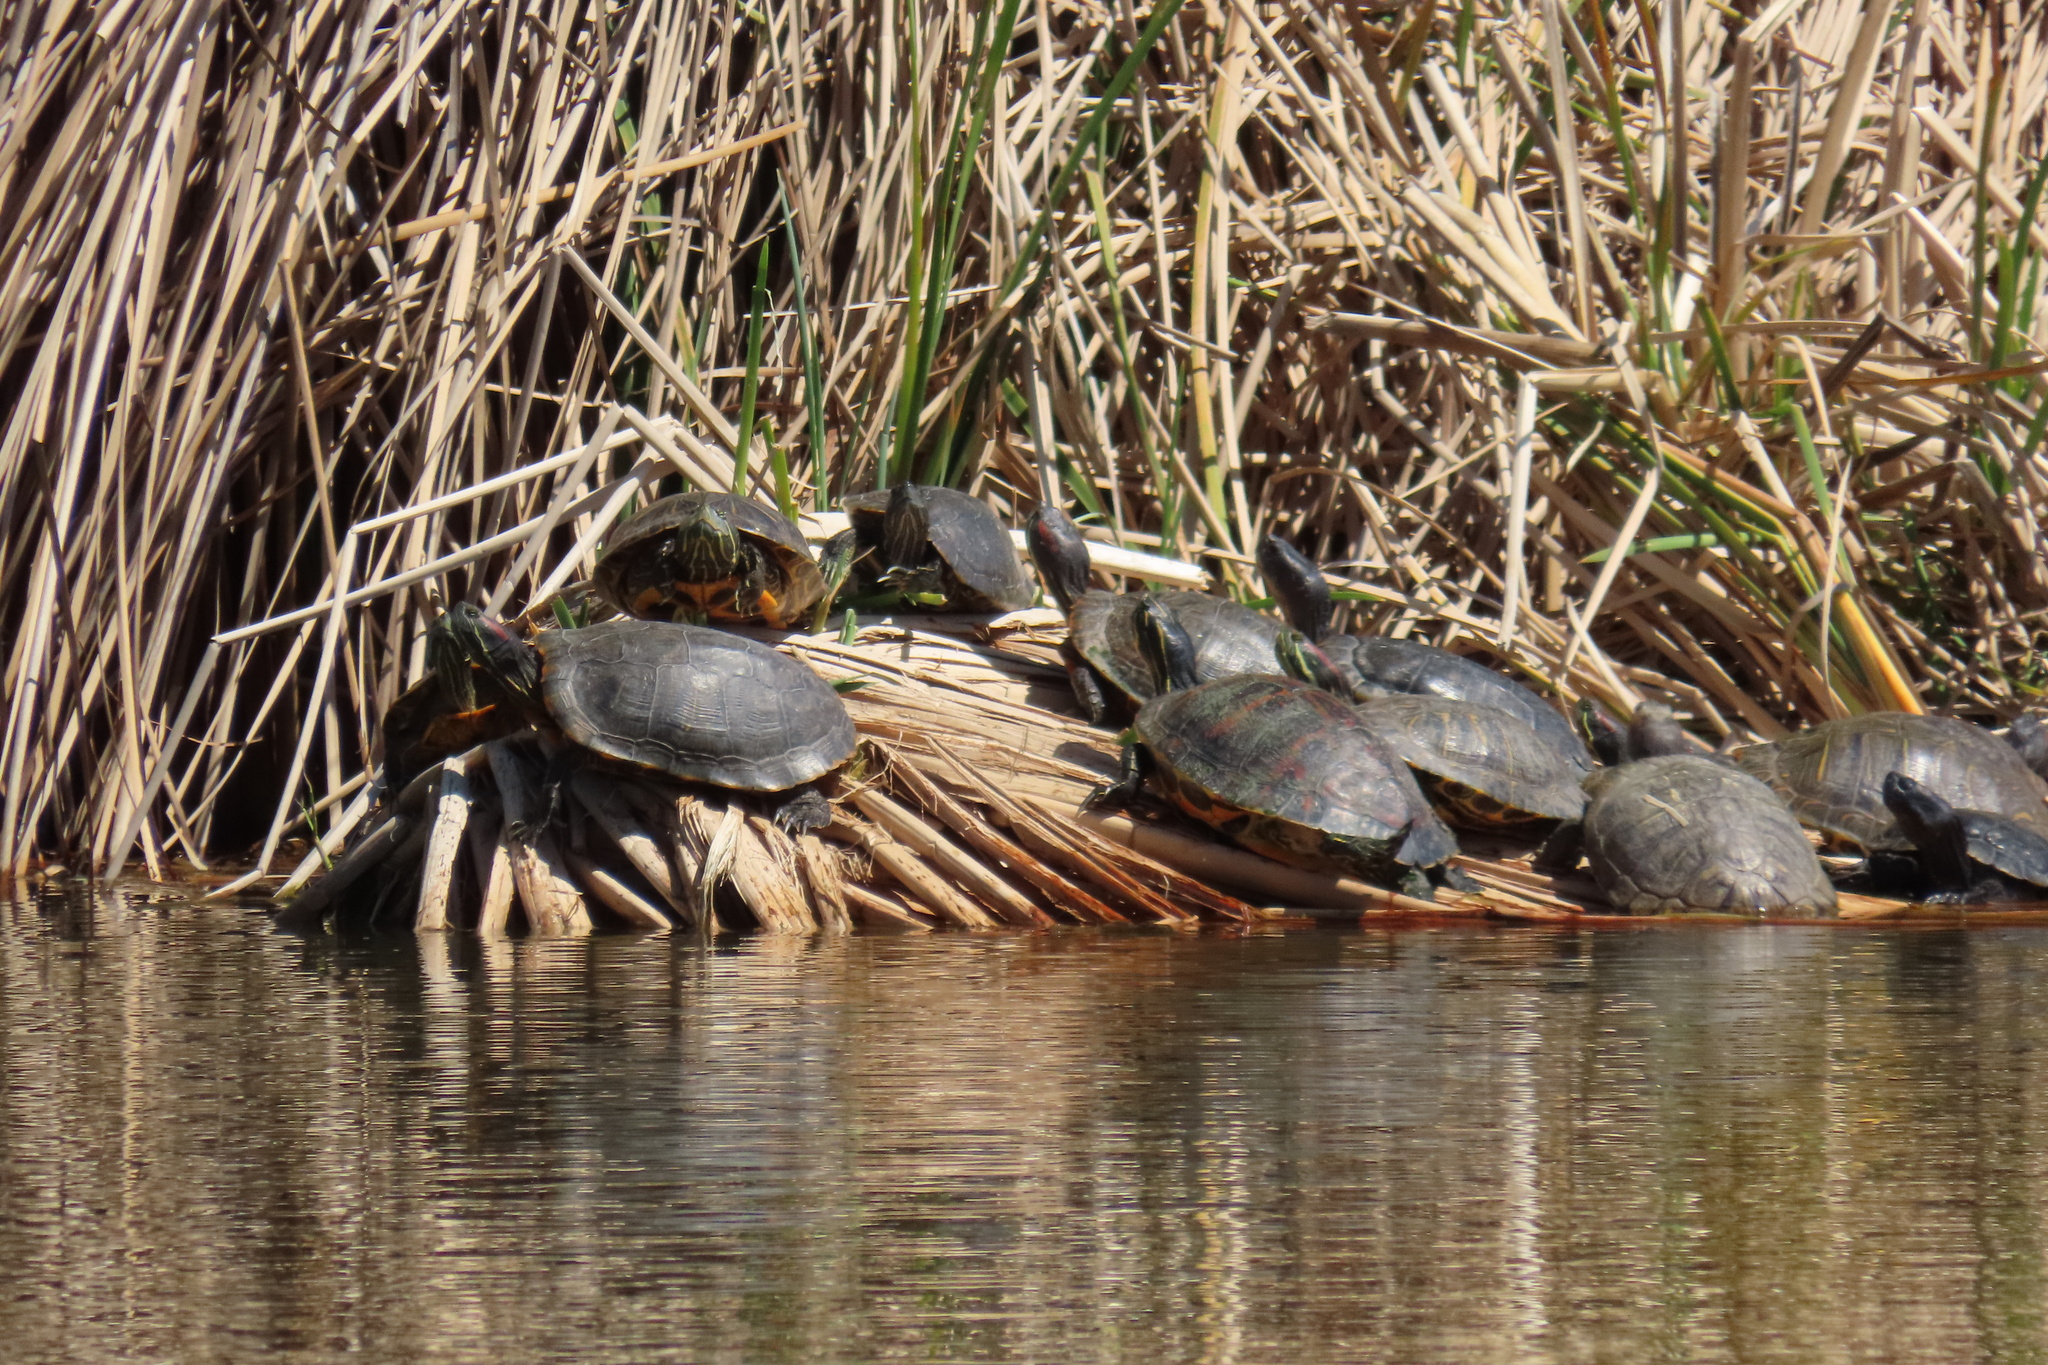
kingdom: Animalia
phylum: Chordata
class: Testudines
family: Emydidae
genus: Trachemys
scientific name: Trachemys scripta
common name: Slider
